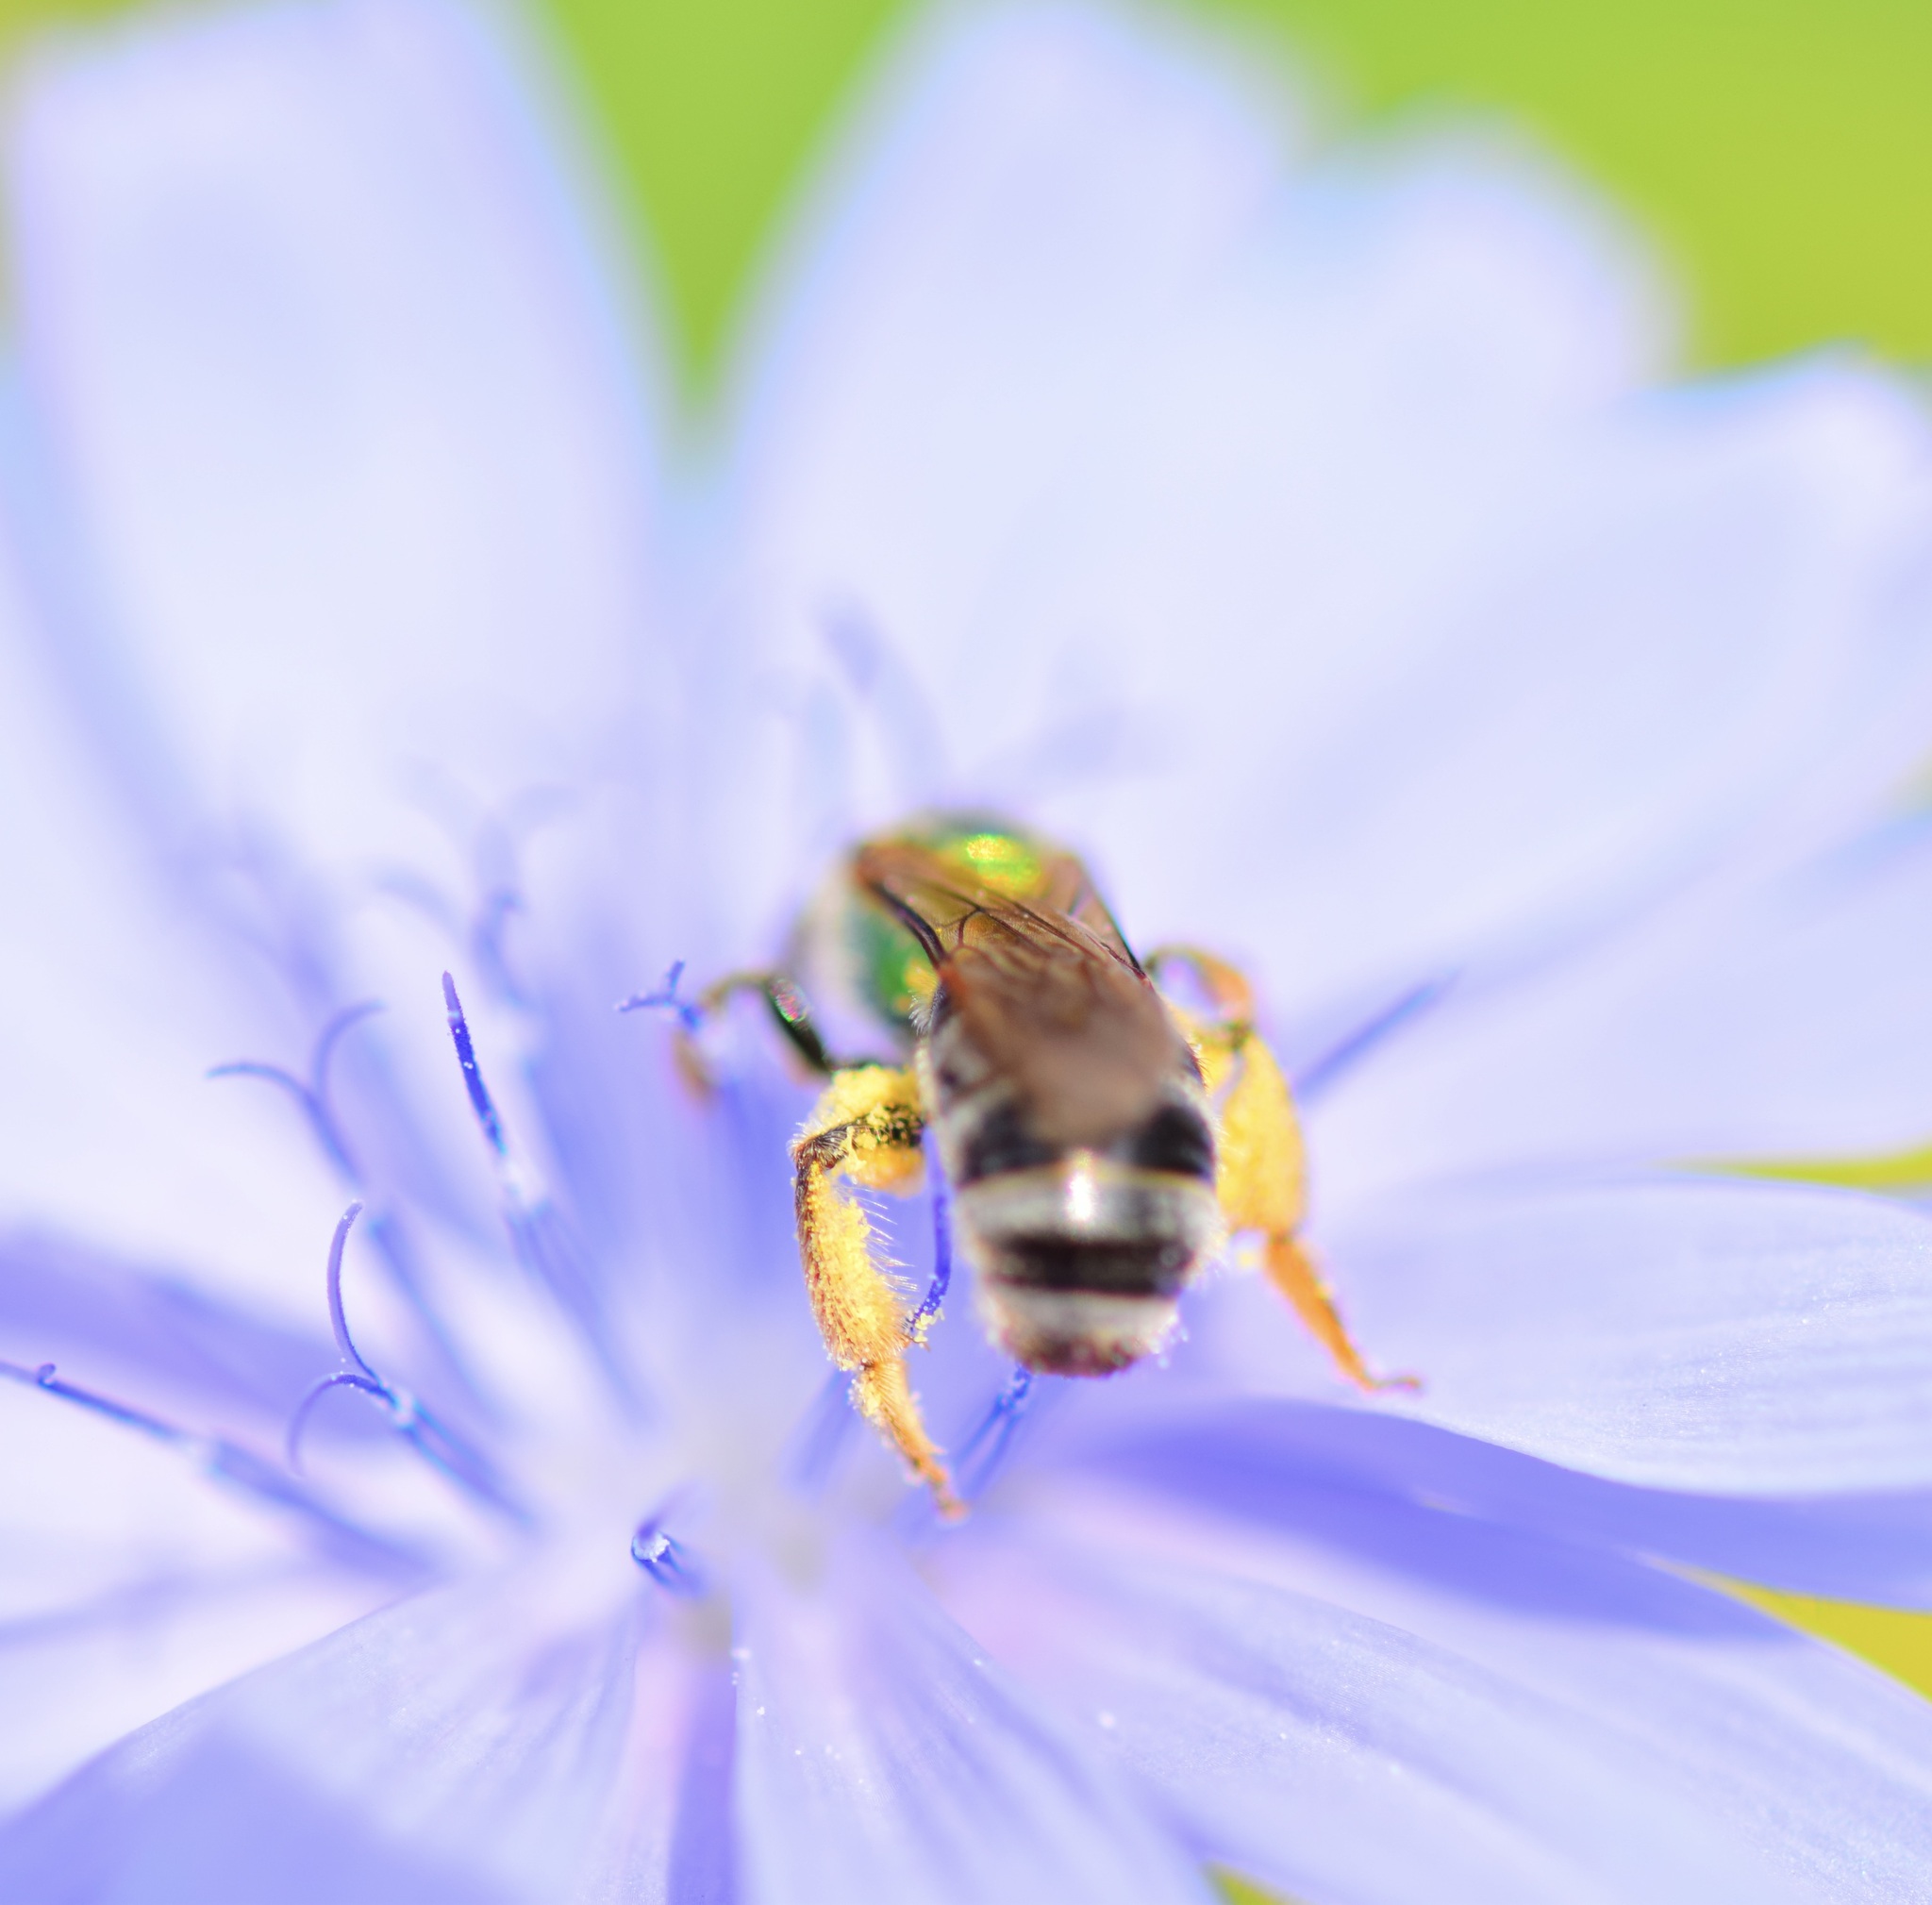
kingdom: Animalia
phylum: Arthropoda
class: Insecta
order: Hymenoptera
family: Halictidae
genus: Agapostemon
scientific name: Agapostemon virescens
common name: Bicolored striped sweat bee
